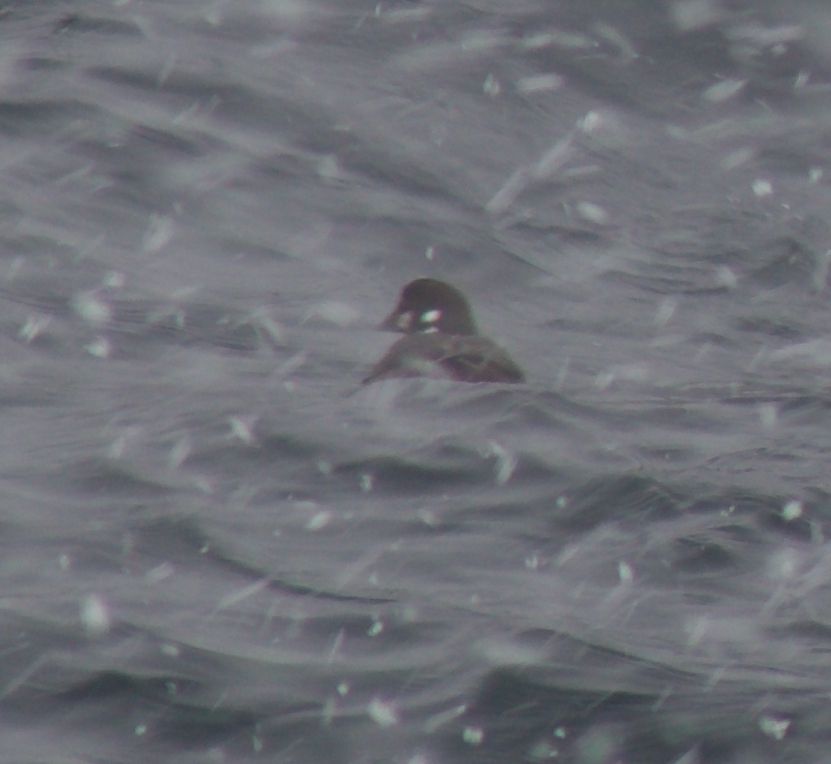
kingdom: Animalia
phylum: Chordata
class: Aves
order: Anseriformes
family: Anatidae
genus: Histrionicus
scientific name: Histrionicus histrionicus
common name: Harlequin duck
